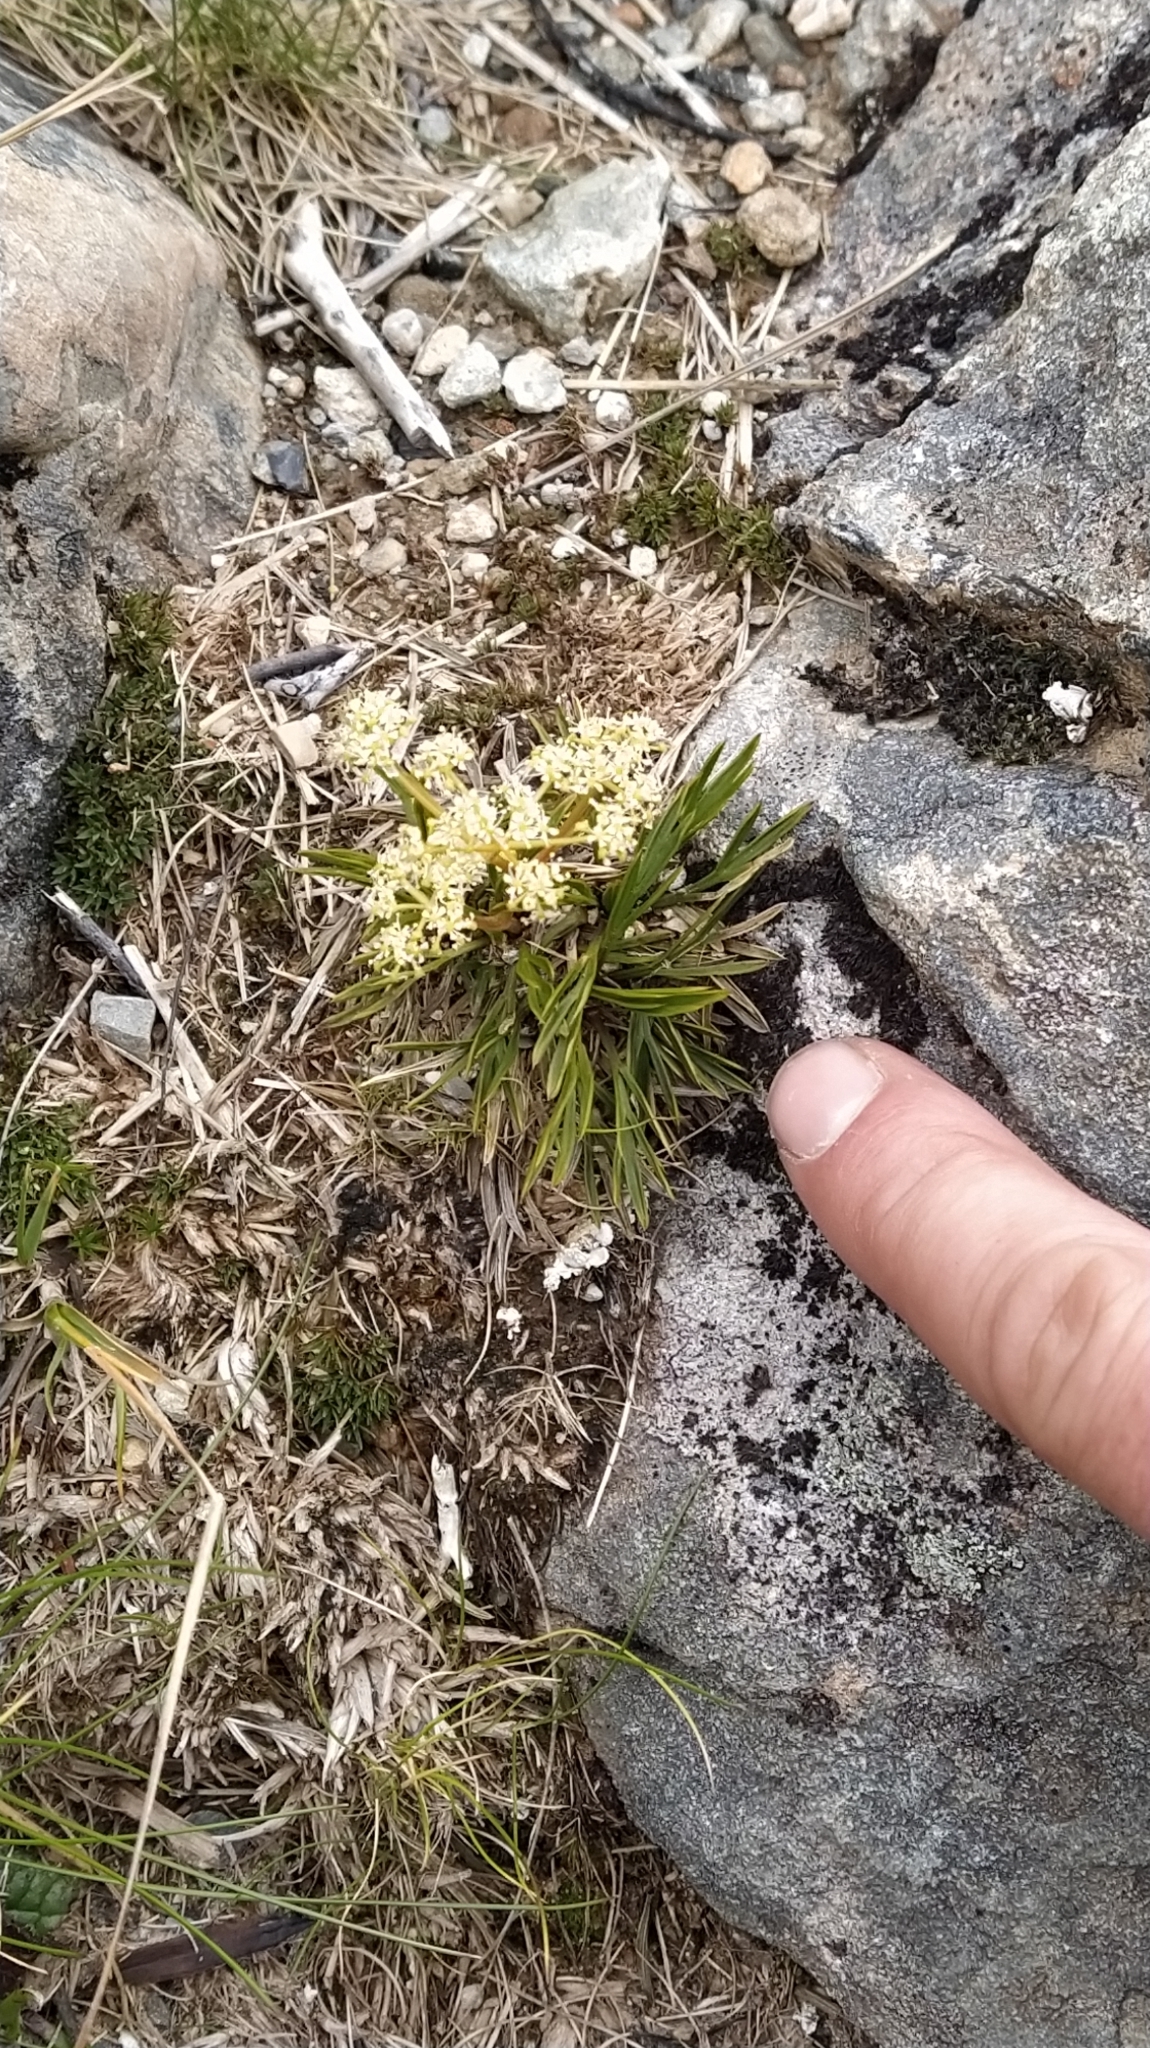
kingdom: Plantae
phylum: Tracheophyta
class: Magnoliopsida
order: Apiales
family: Apiaceae
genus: Aciphylla
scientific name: Aciphylla monroi
